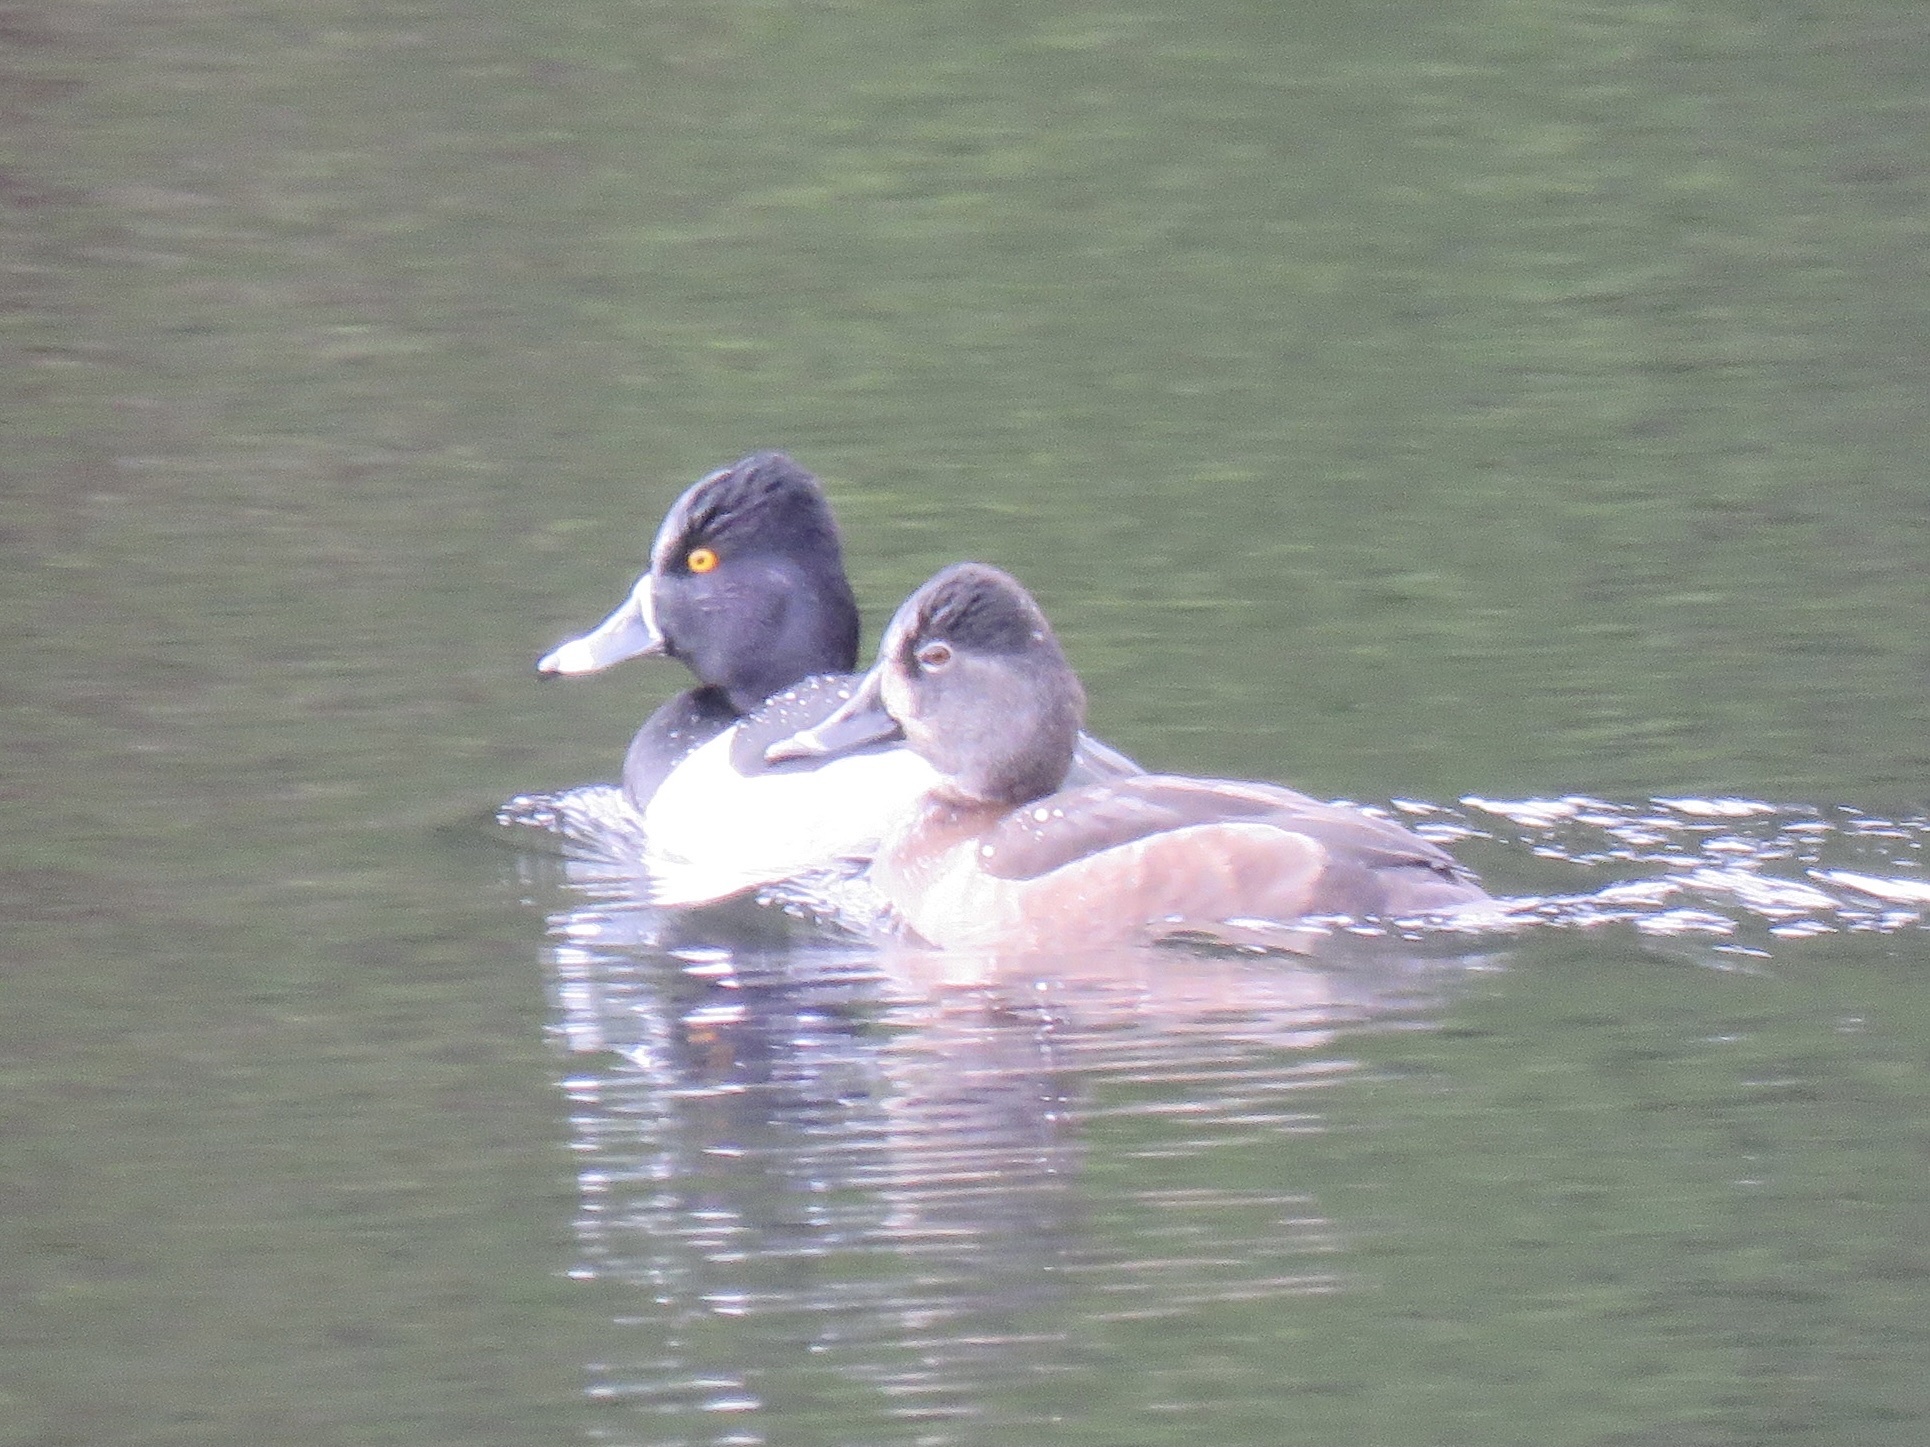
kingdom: Animalia
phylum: Chordata
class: Aves
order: Anseriformes
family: Anatidae
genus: Aythya
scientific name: Aythya collaris
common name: Ring-necked duck
